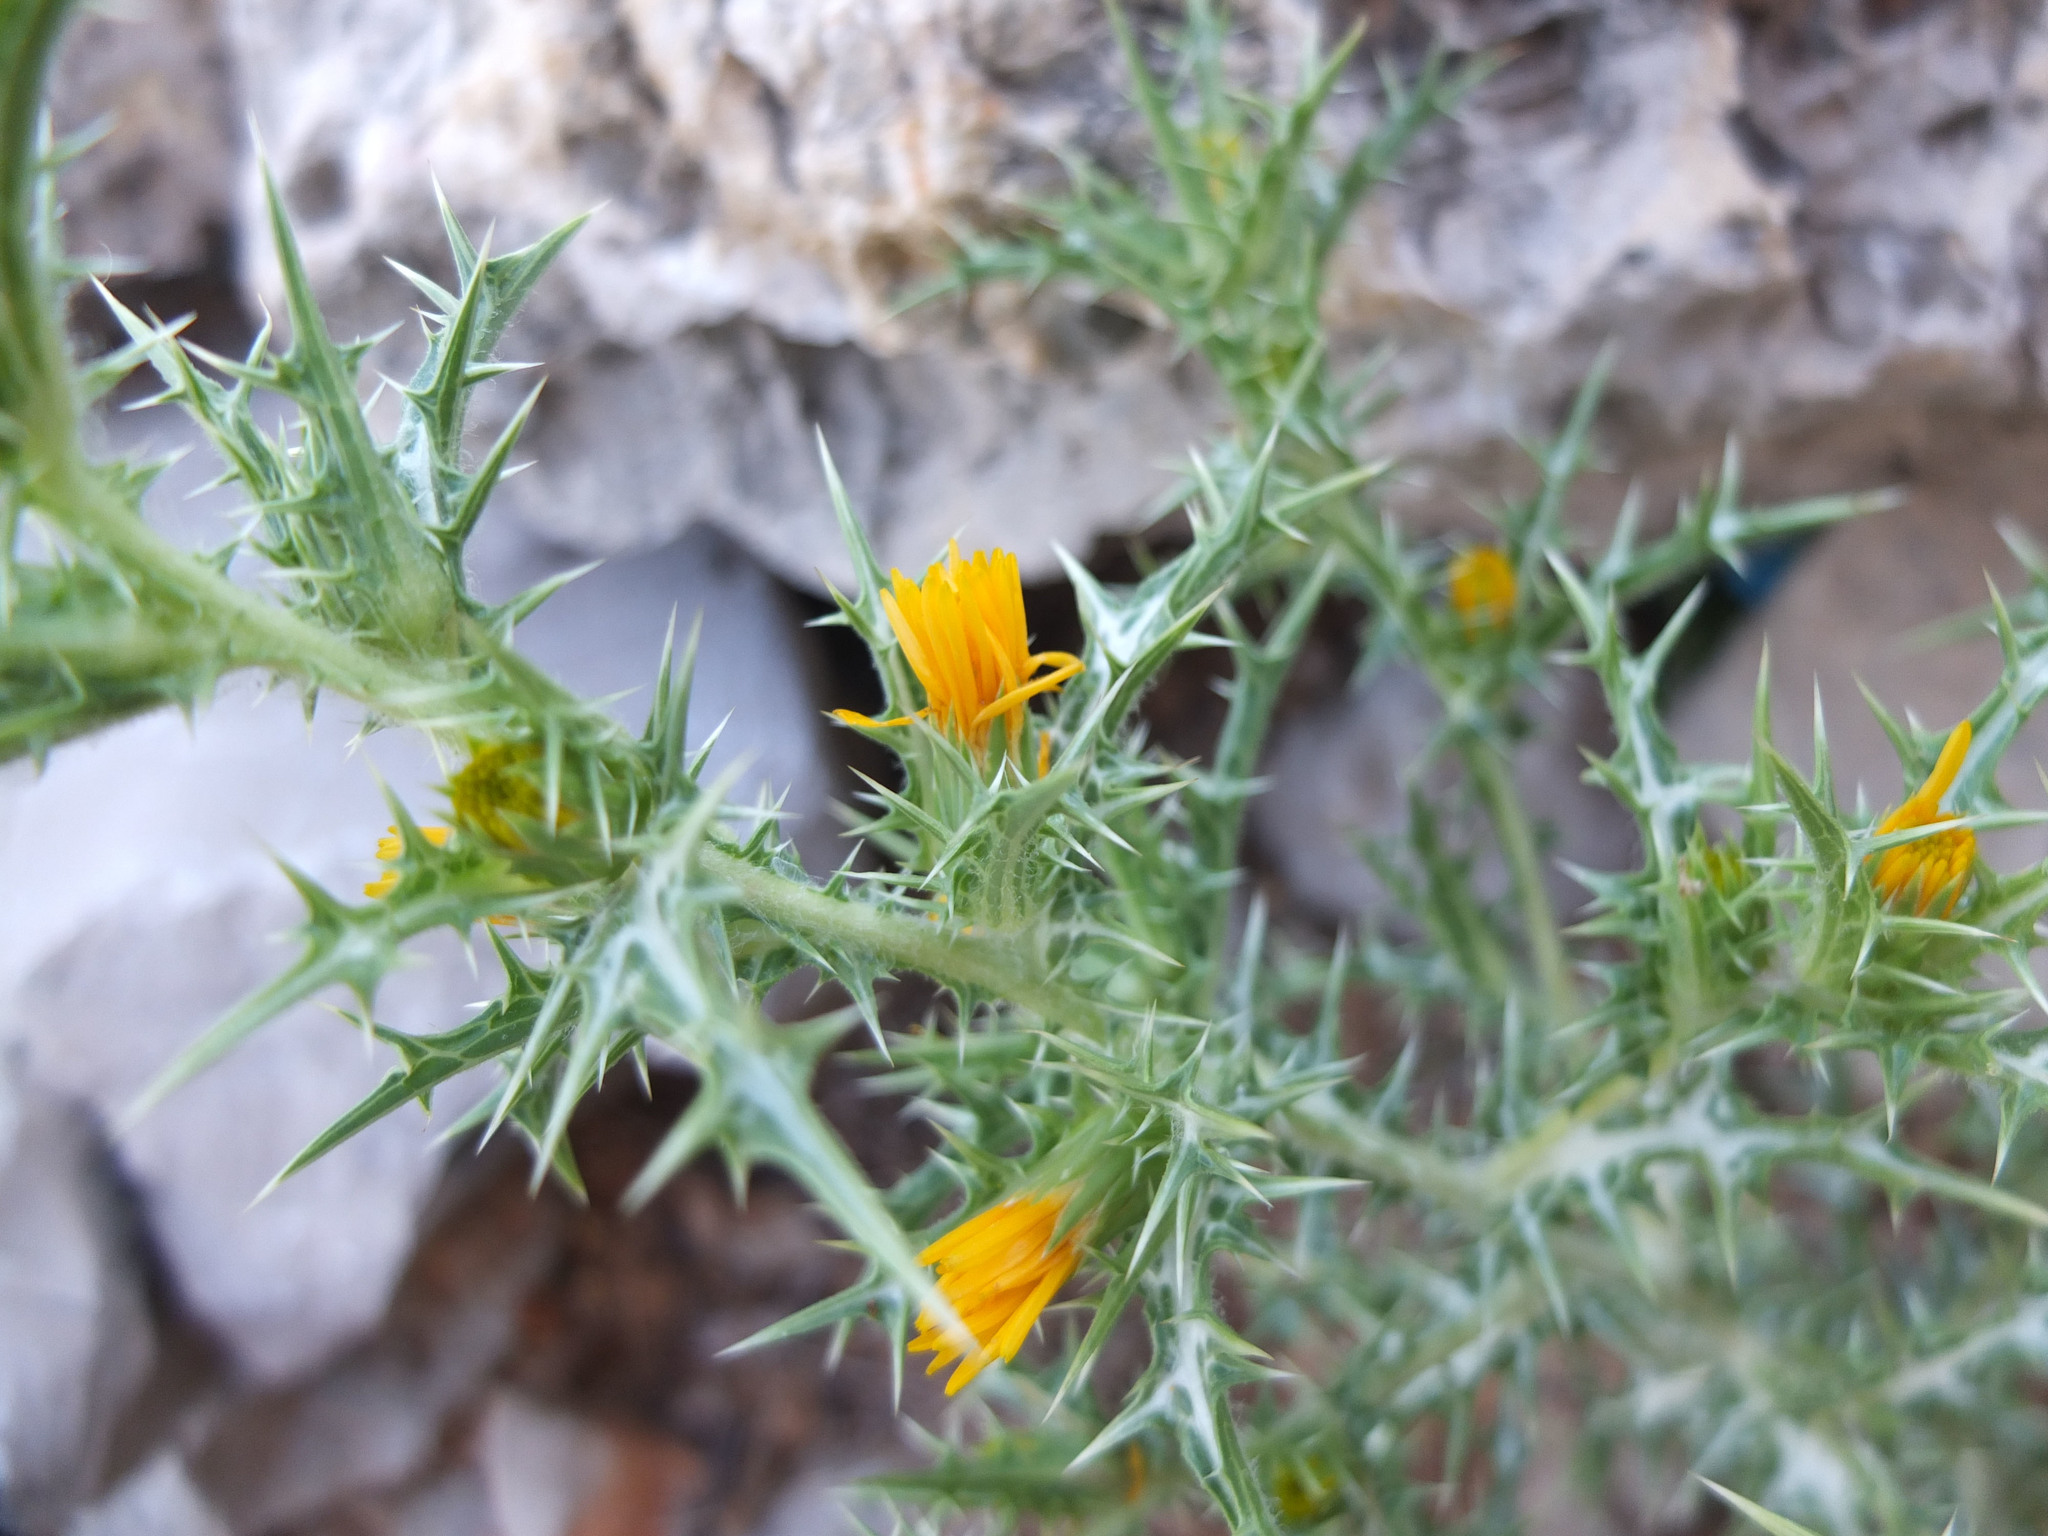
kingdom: Plantae
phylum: Tracheophyta
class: Magnoliopsida
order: Asterales
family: Asteraceae
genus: Scolymus
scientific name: Scolymus hispanicus
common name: Golden thistle
